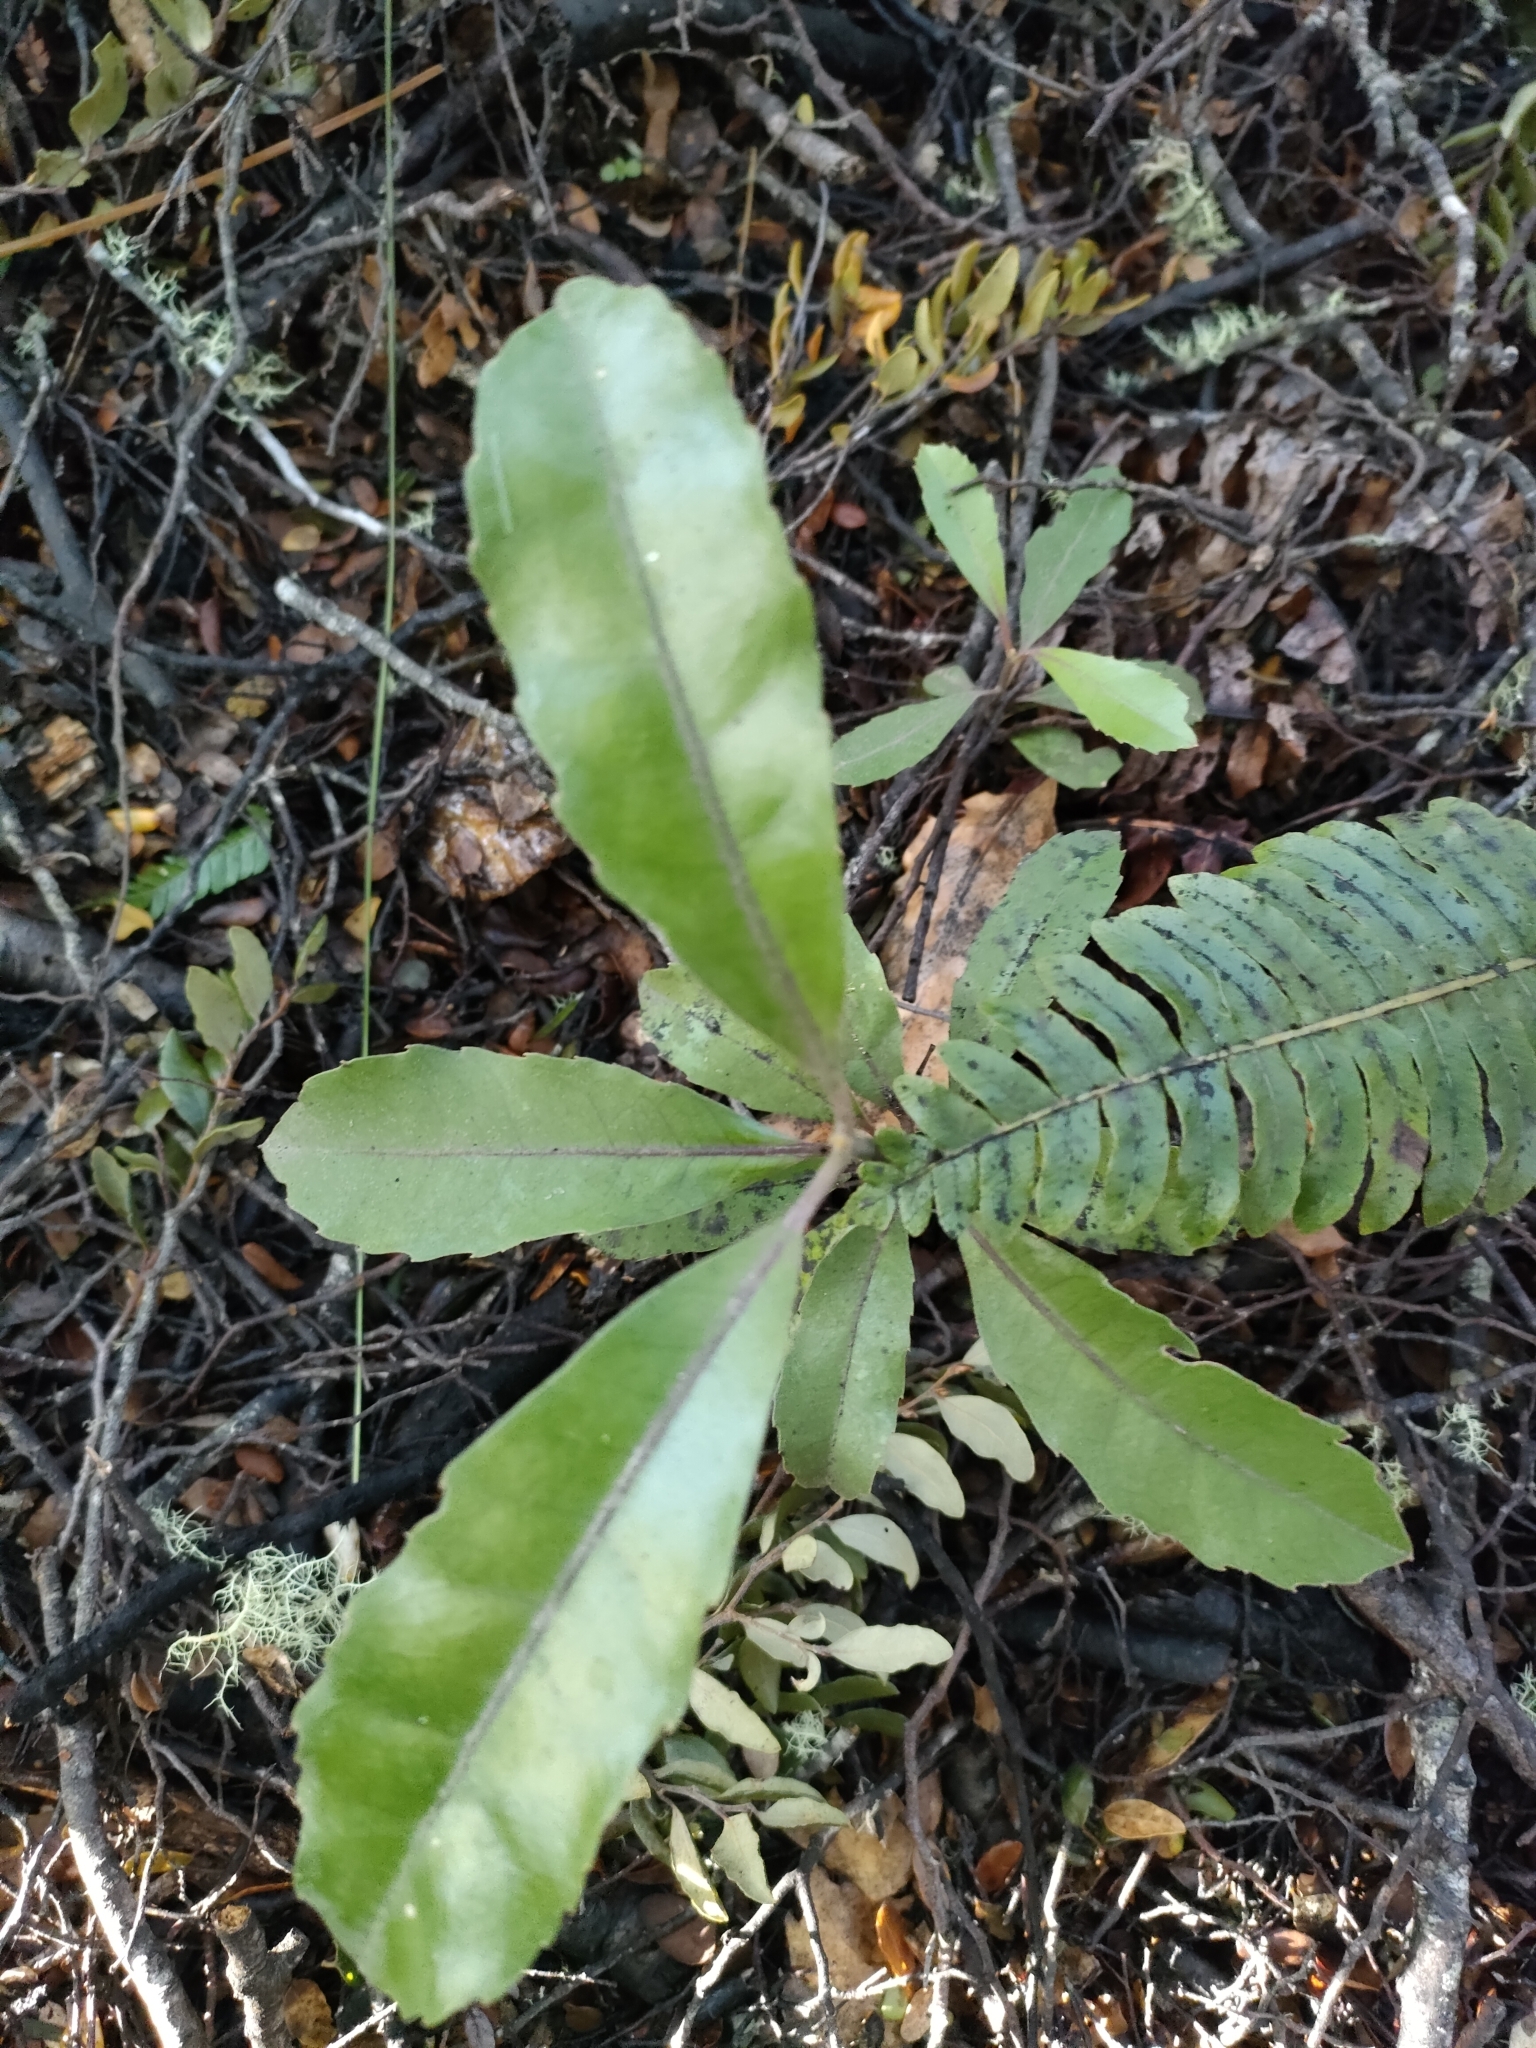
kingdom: Plantae
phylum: Tracheophyta
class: Magnoliopsida
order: Laurales
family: Monimiaceae
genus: Hedycarya
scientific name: Hedycarya arborea
